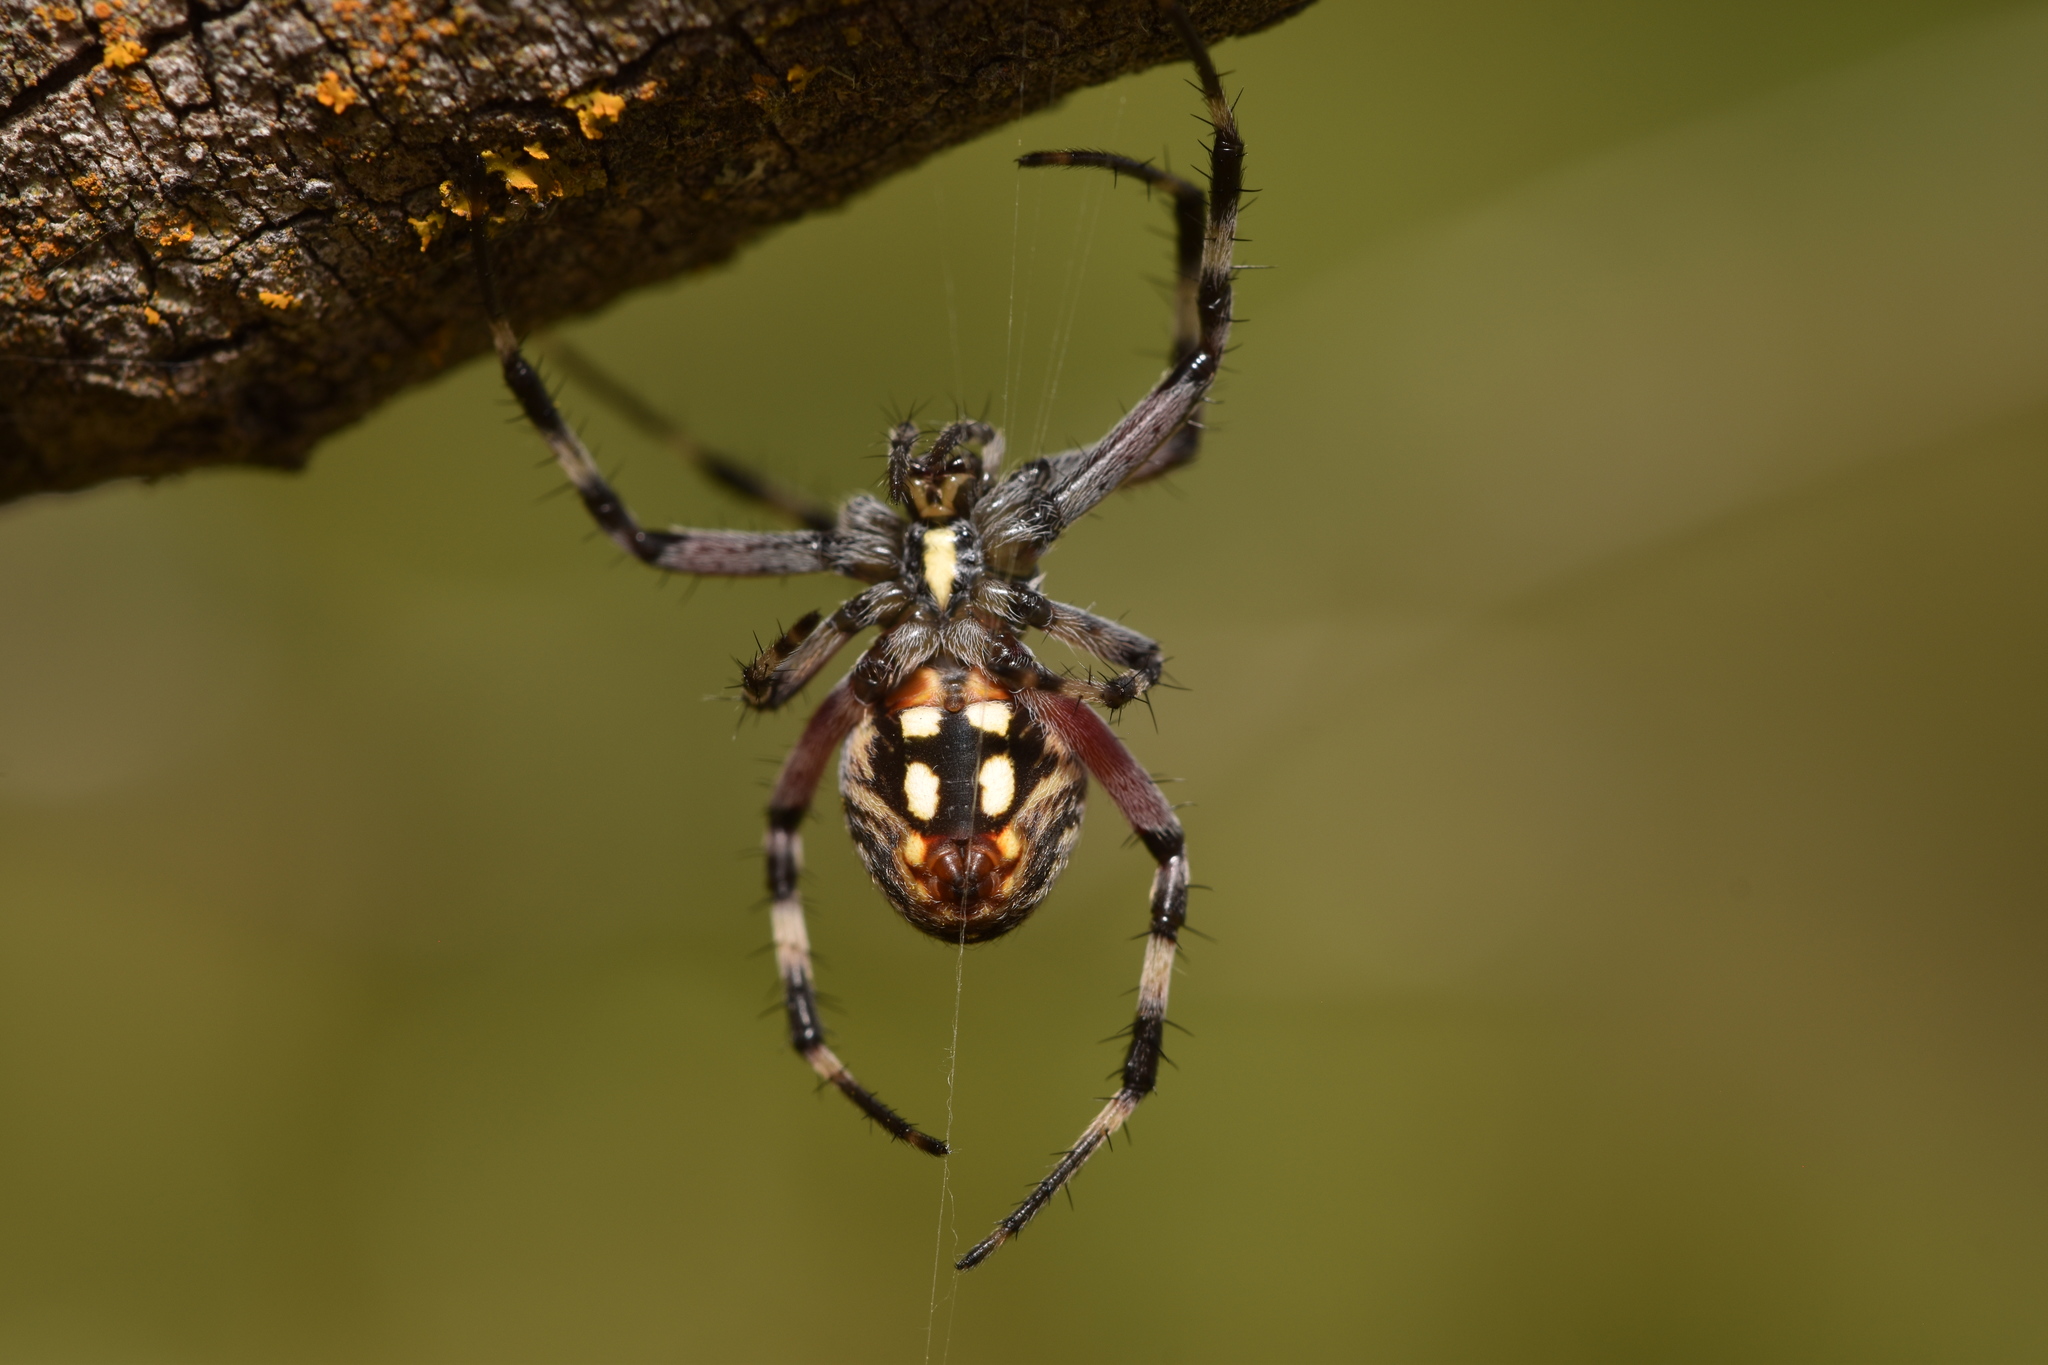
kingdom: Animalia
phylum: Arthropoda
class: Arachnida
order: Araneae
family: Araneidae
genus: Neoscona
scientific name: Neoscona oaxacensis
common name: Orb weavers
